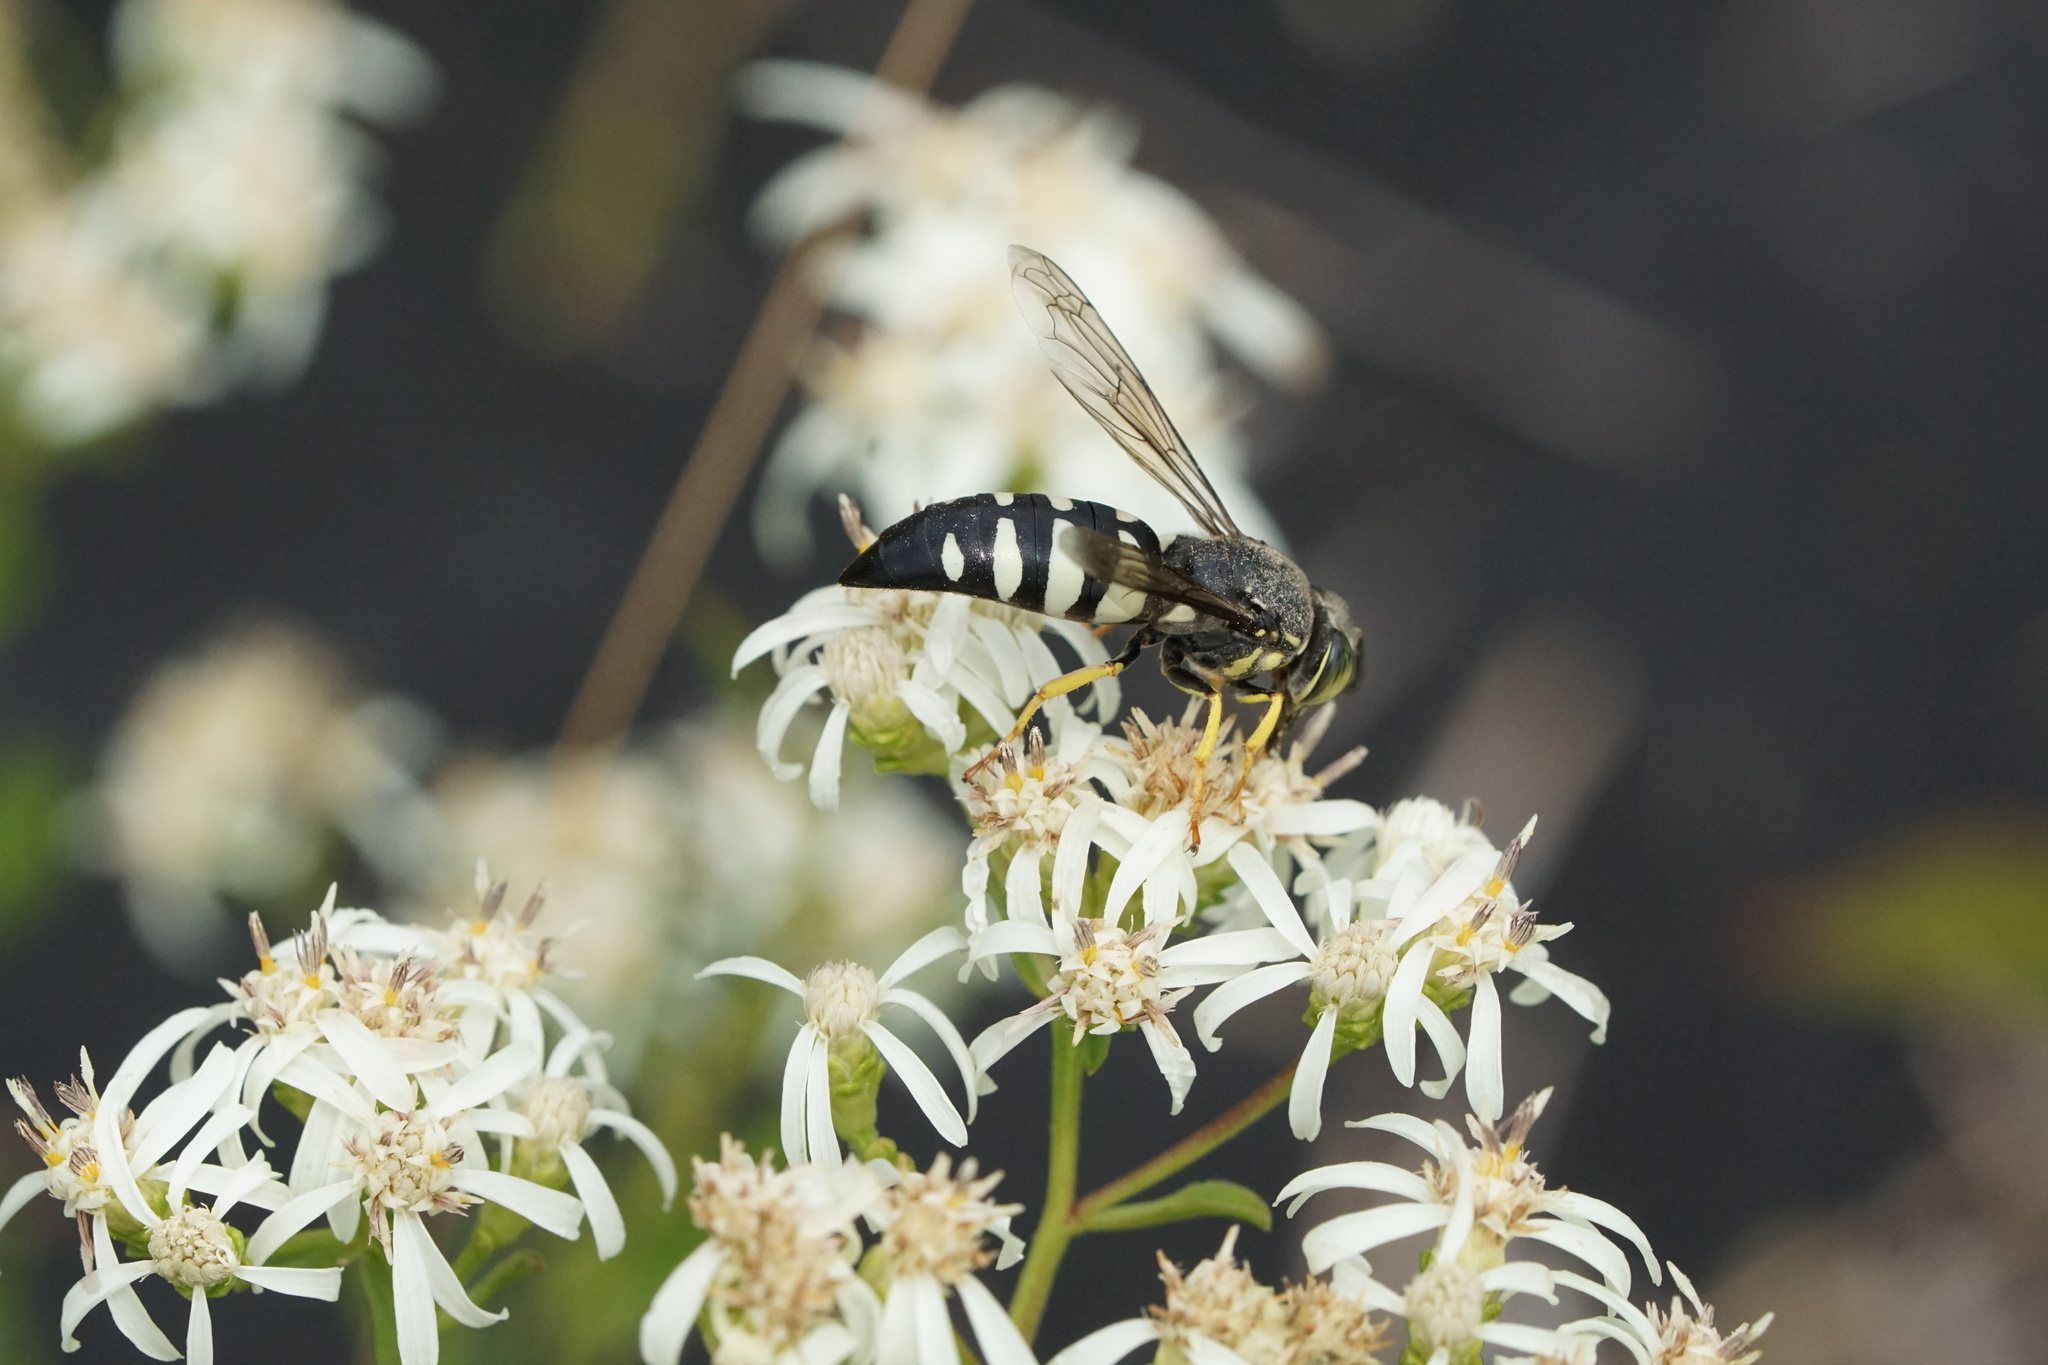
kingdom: Animalia
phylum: Arthropoda
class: Insecta
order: Hymenoptera
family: Crabronidae
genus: Bicyrtes
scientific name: Bicyrtes quadrifasciatus
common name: Four-banded stink bug hunter wasp
